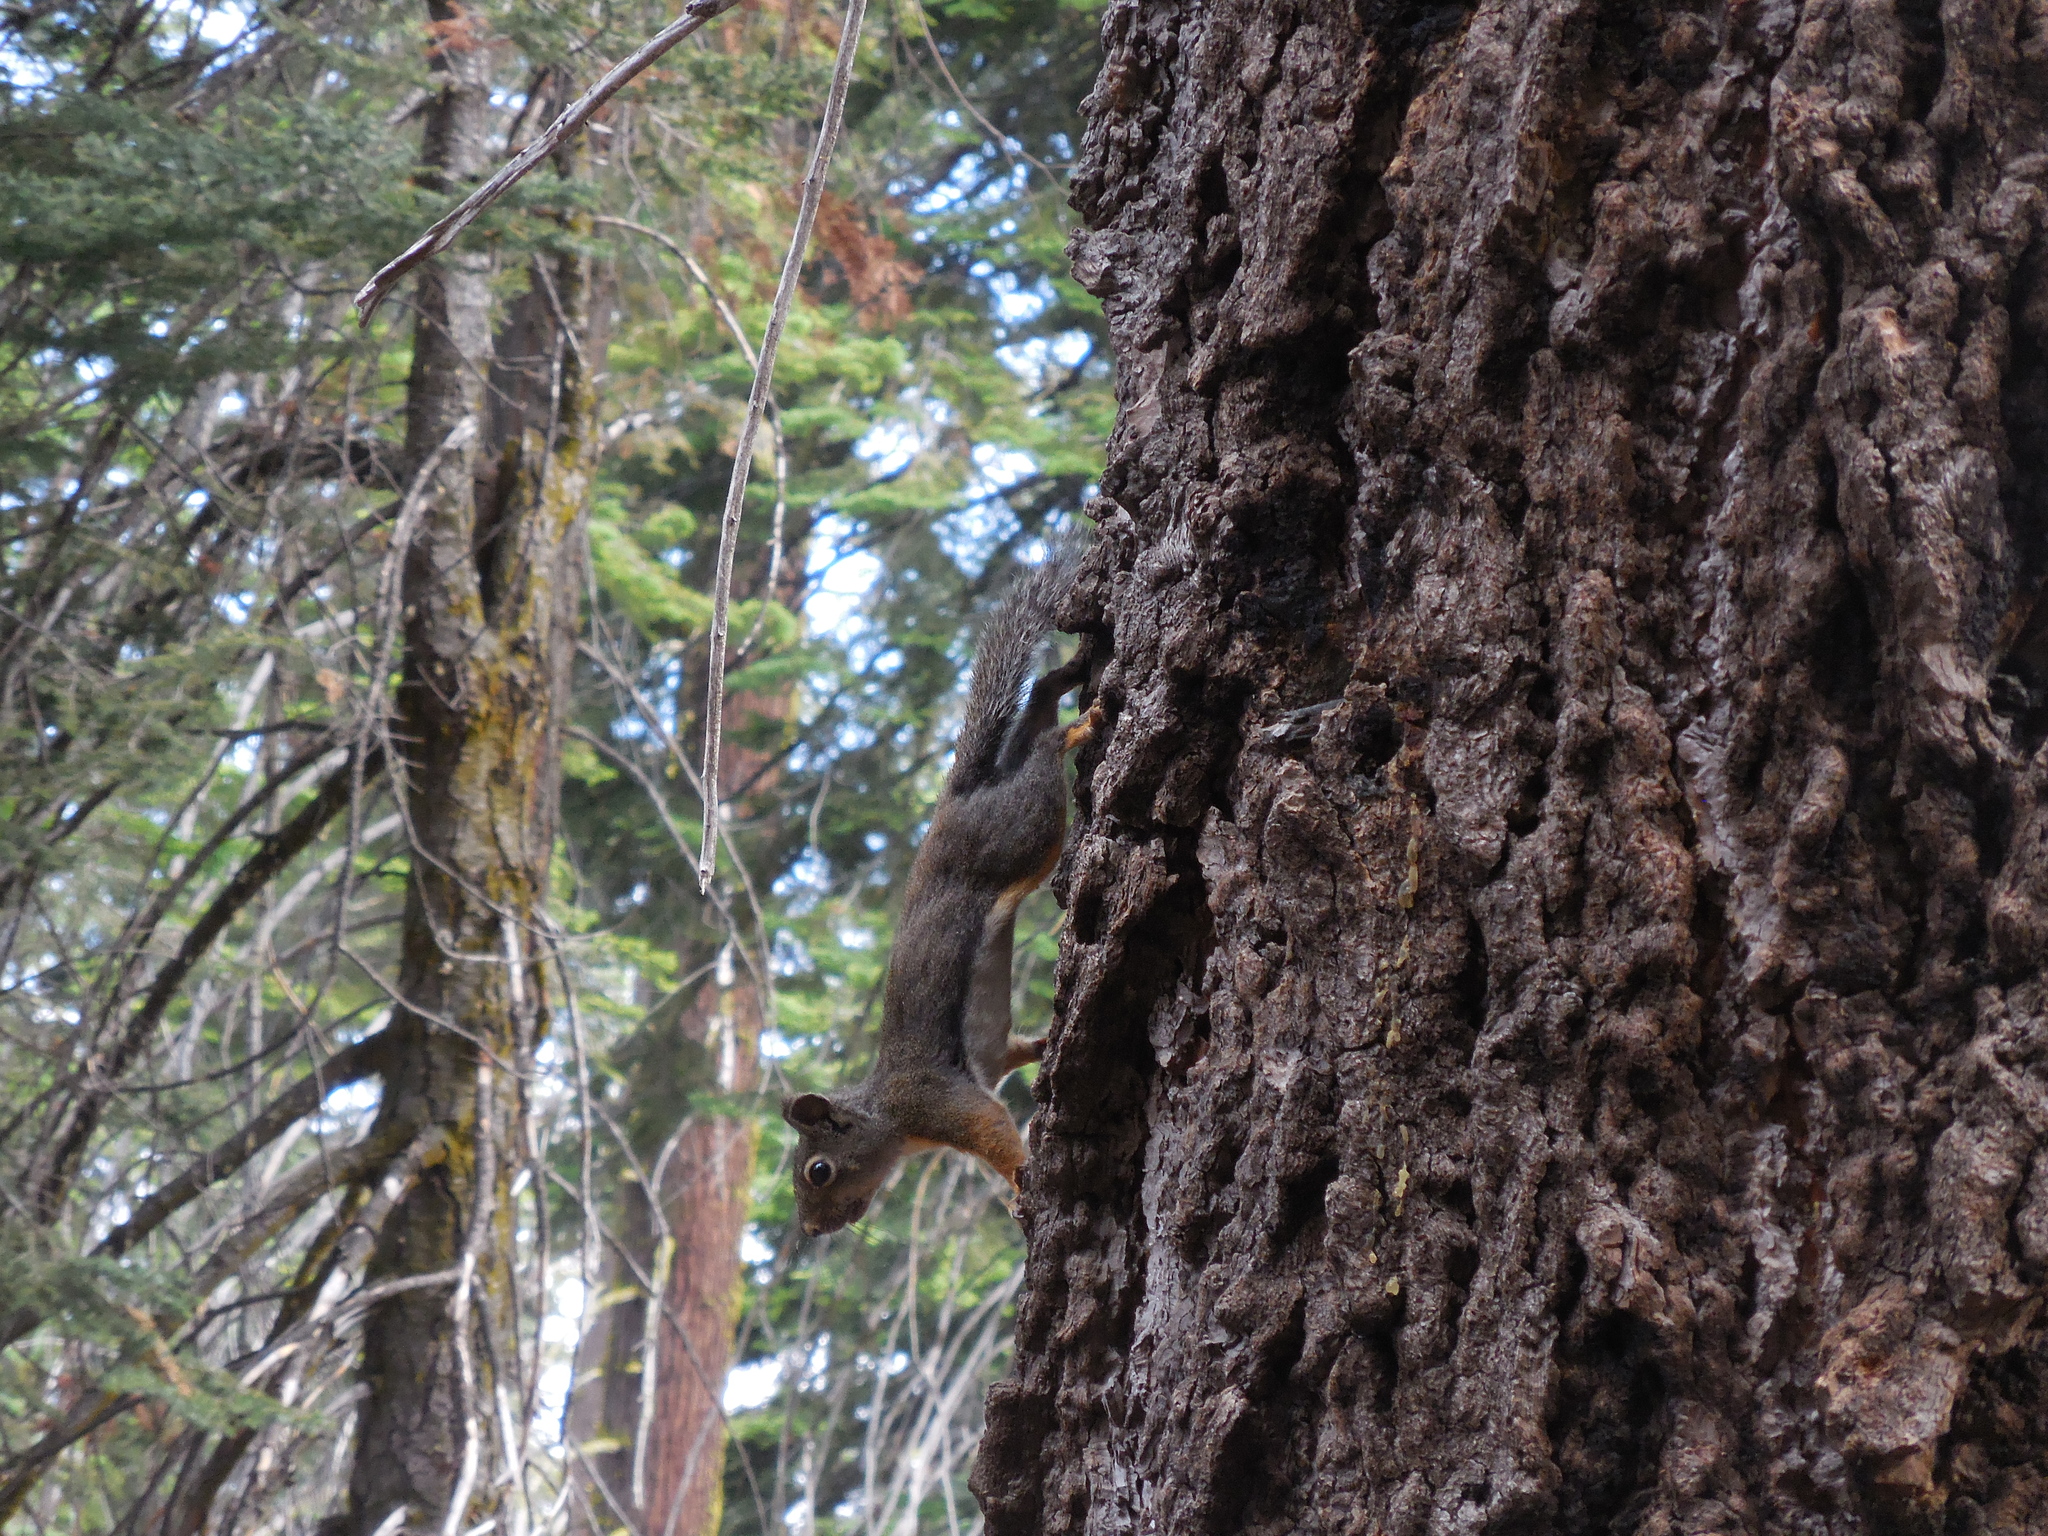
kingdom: Animalia
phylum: Chordata
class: Mammalia
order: Rodentia
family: Sciuridae
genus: Tamiasciurus
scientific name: Tamiasciurus douglasii
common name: Douglas's squirrel
